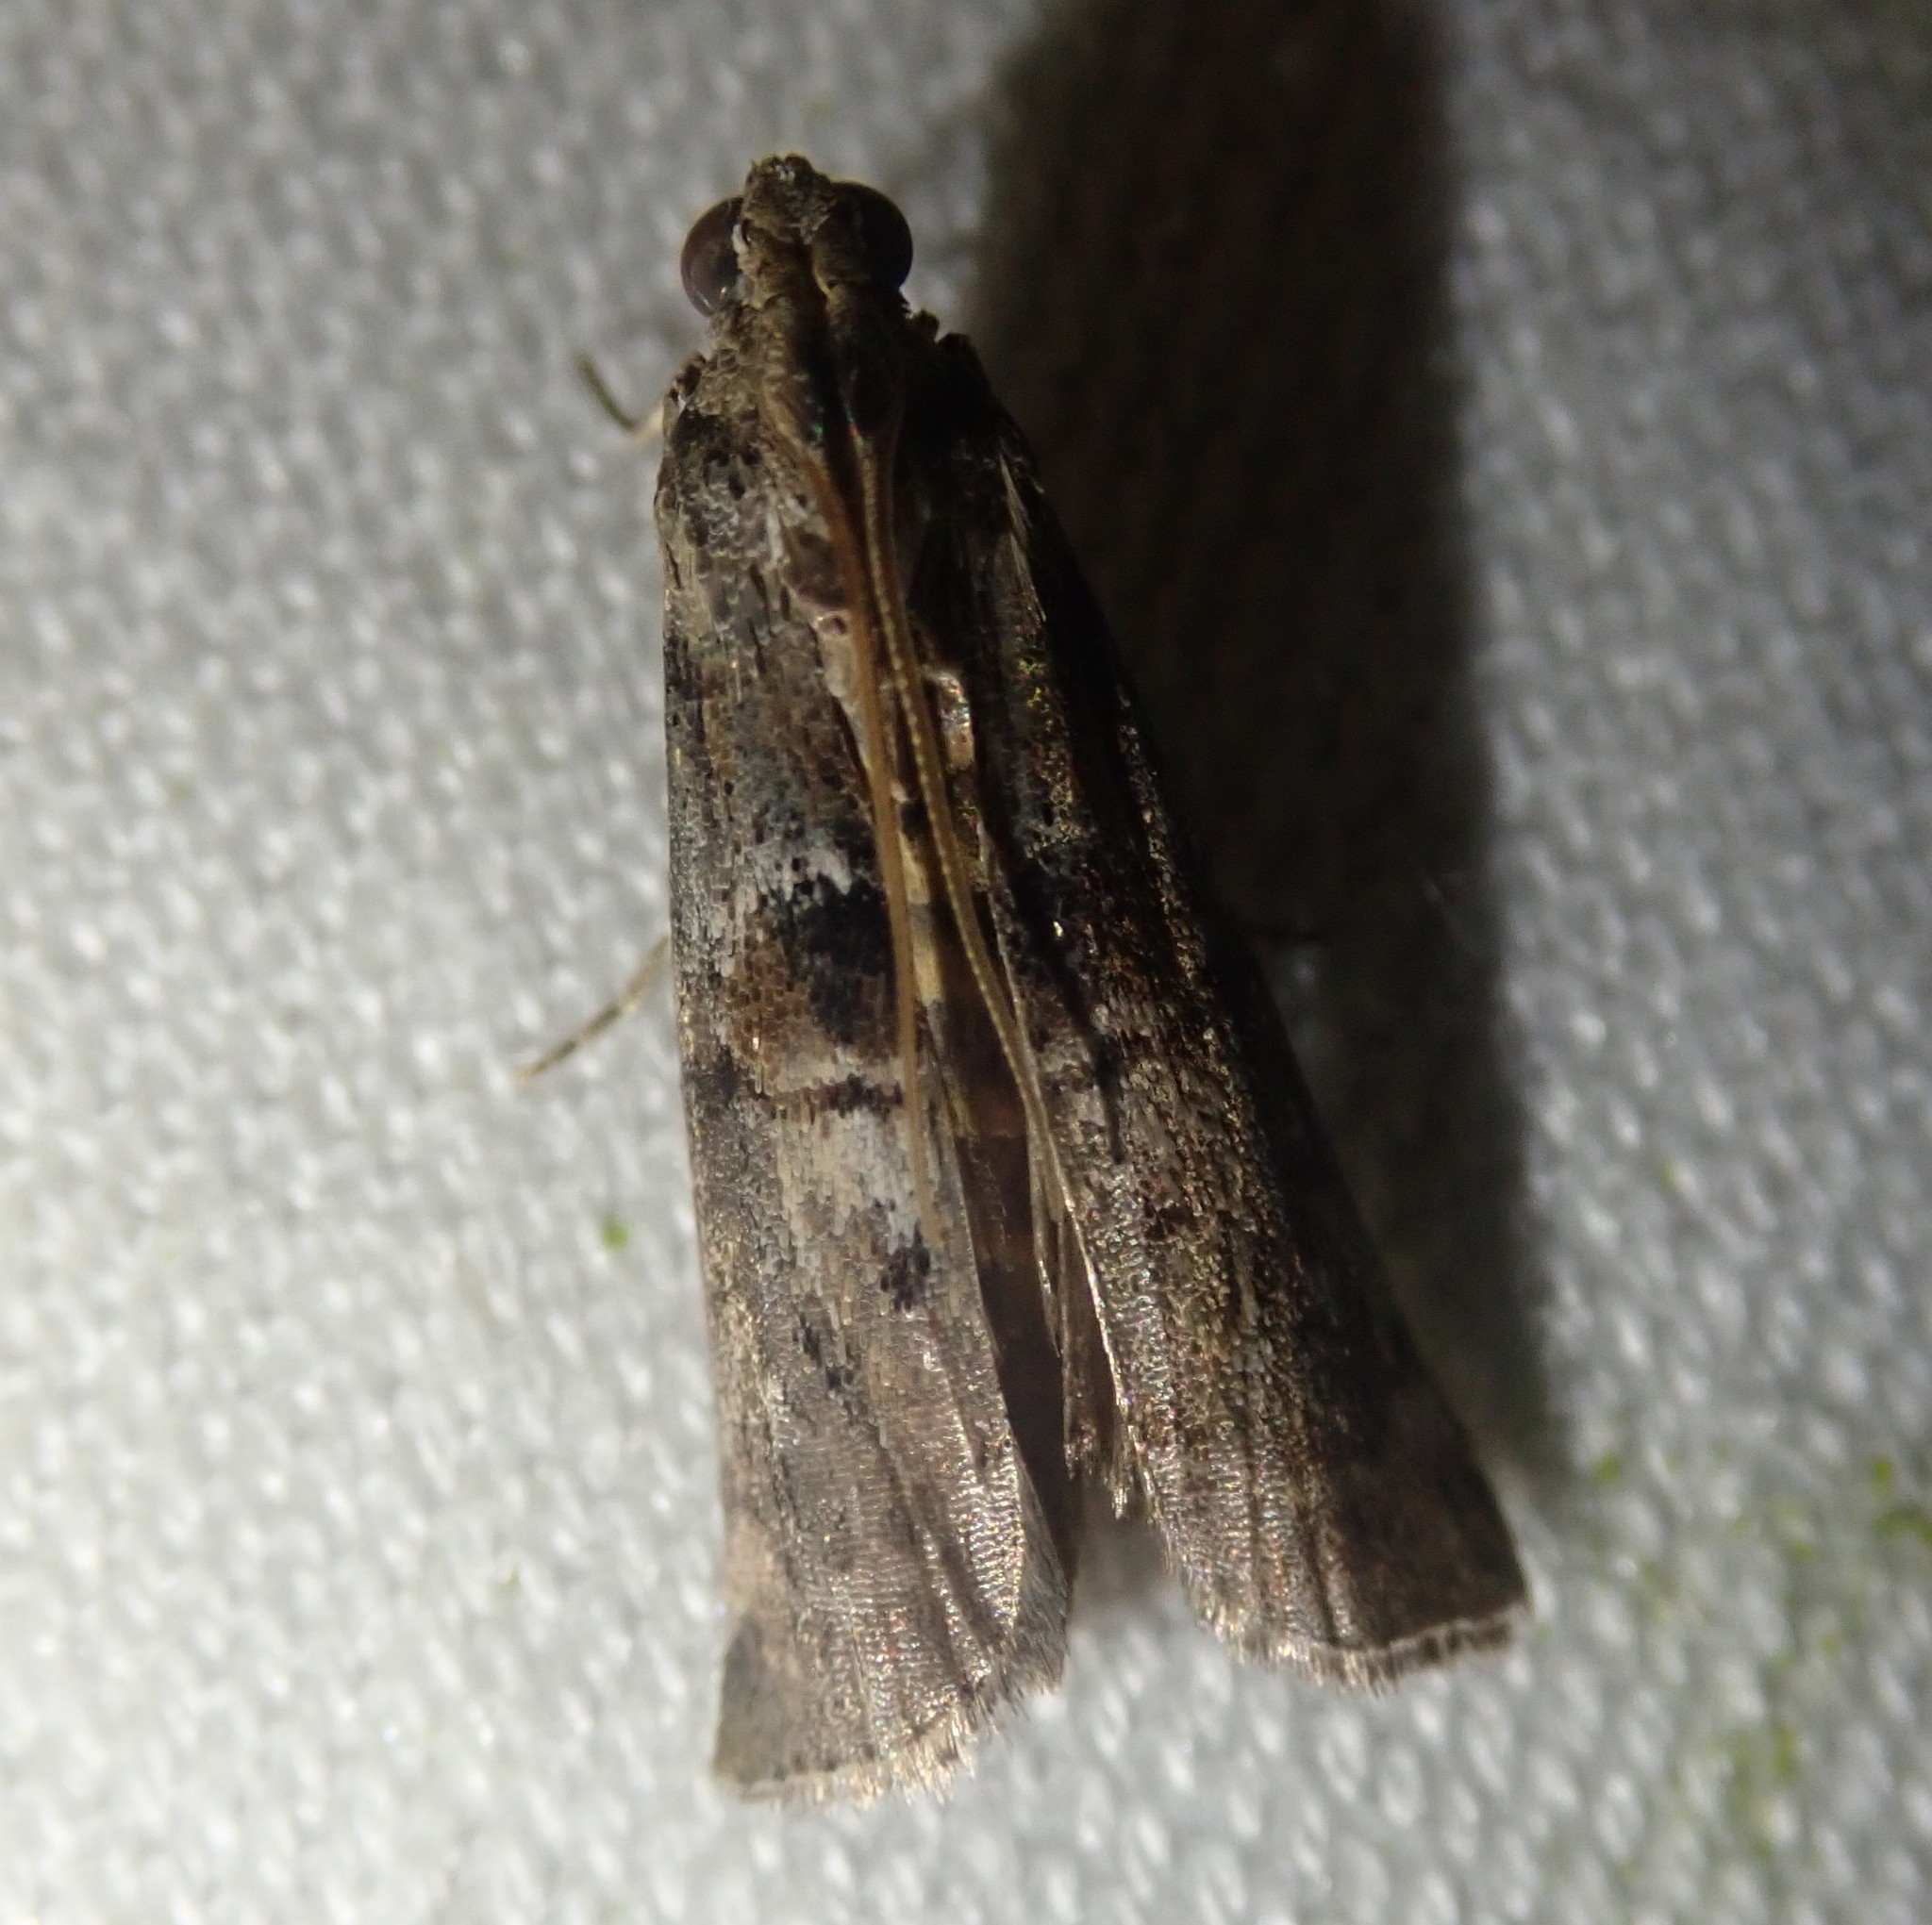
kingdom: Animalia
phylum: Arthropoda
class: Insecta
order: Lepidoptera
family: Pyralidae
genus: Phycita
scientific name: Phycita roborella
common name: Dotted oak knot-horn
